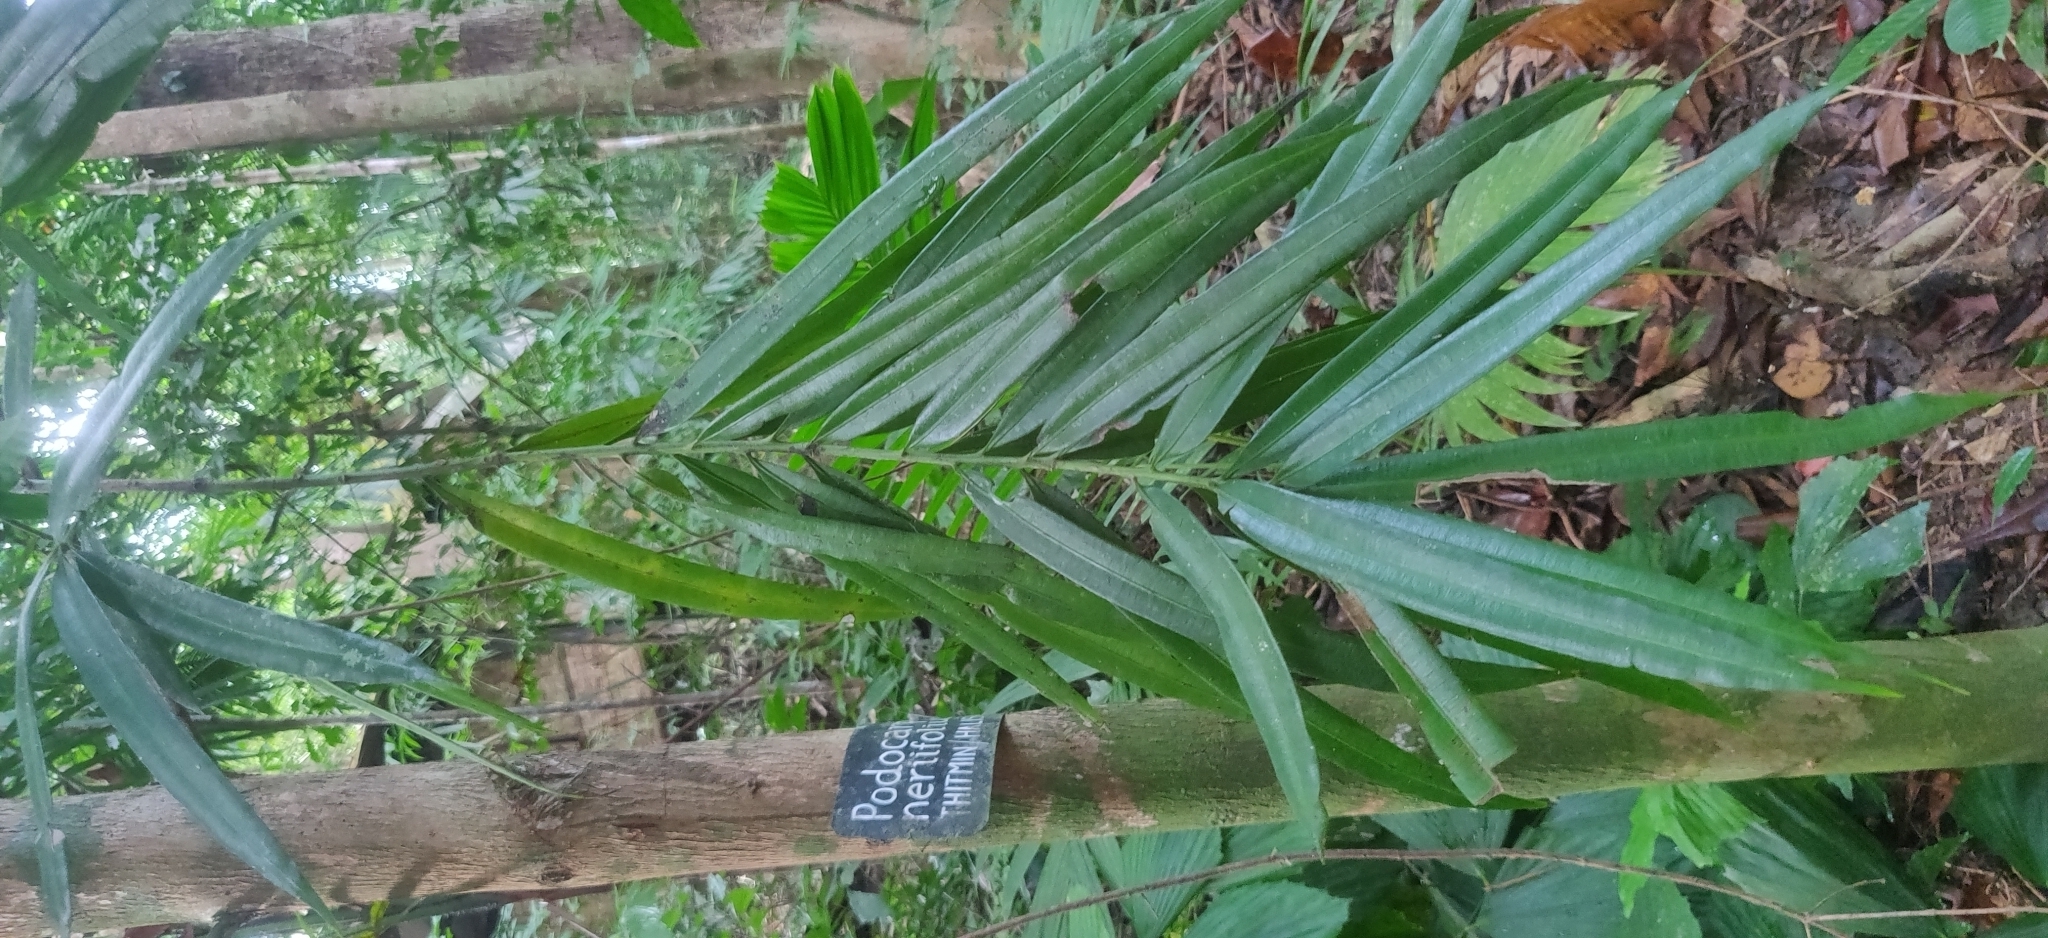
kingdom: Plantae
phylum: Tracheophyta
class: Pinopsida
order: Pinales
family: Podocarpaceae
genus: Podocarpus
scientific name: Podocarpus neriifolius
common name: Brown pine
